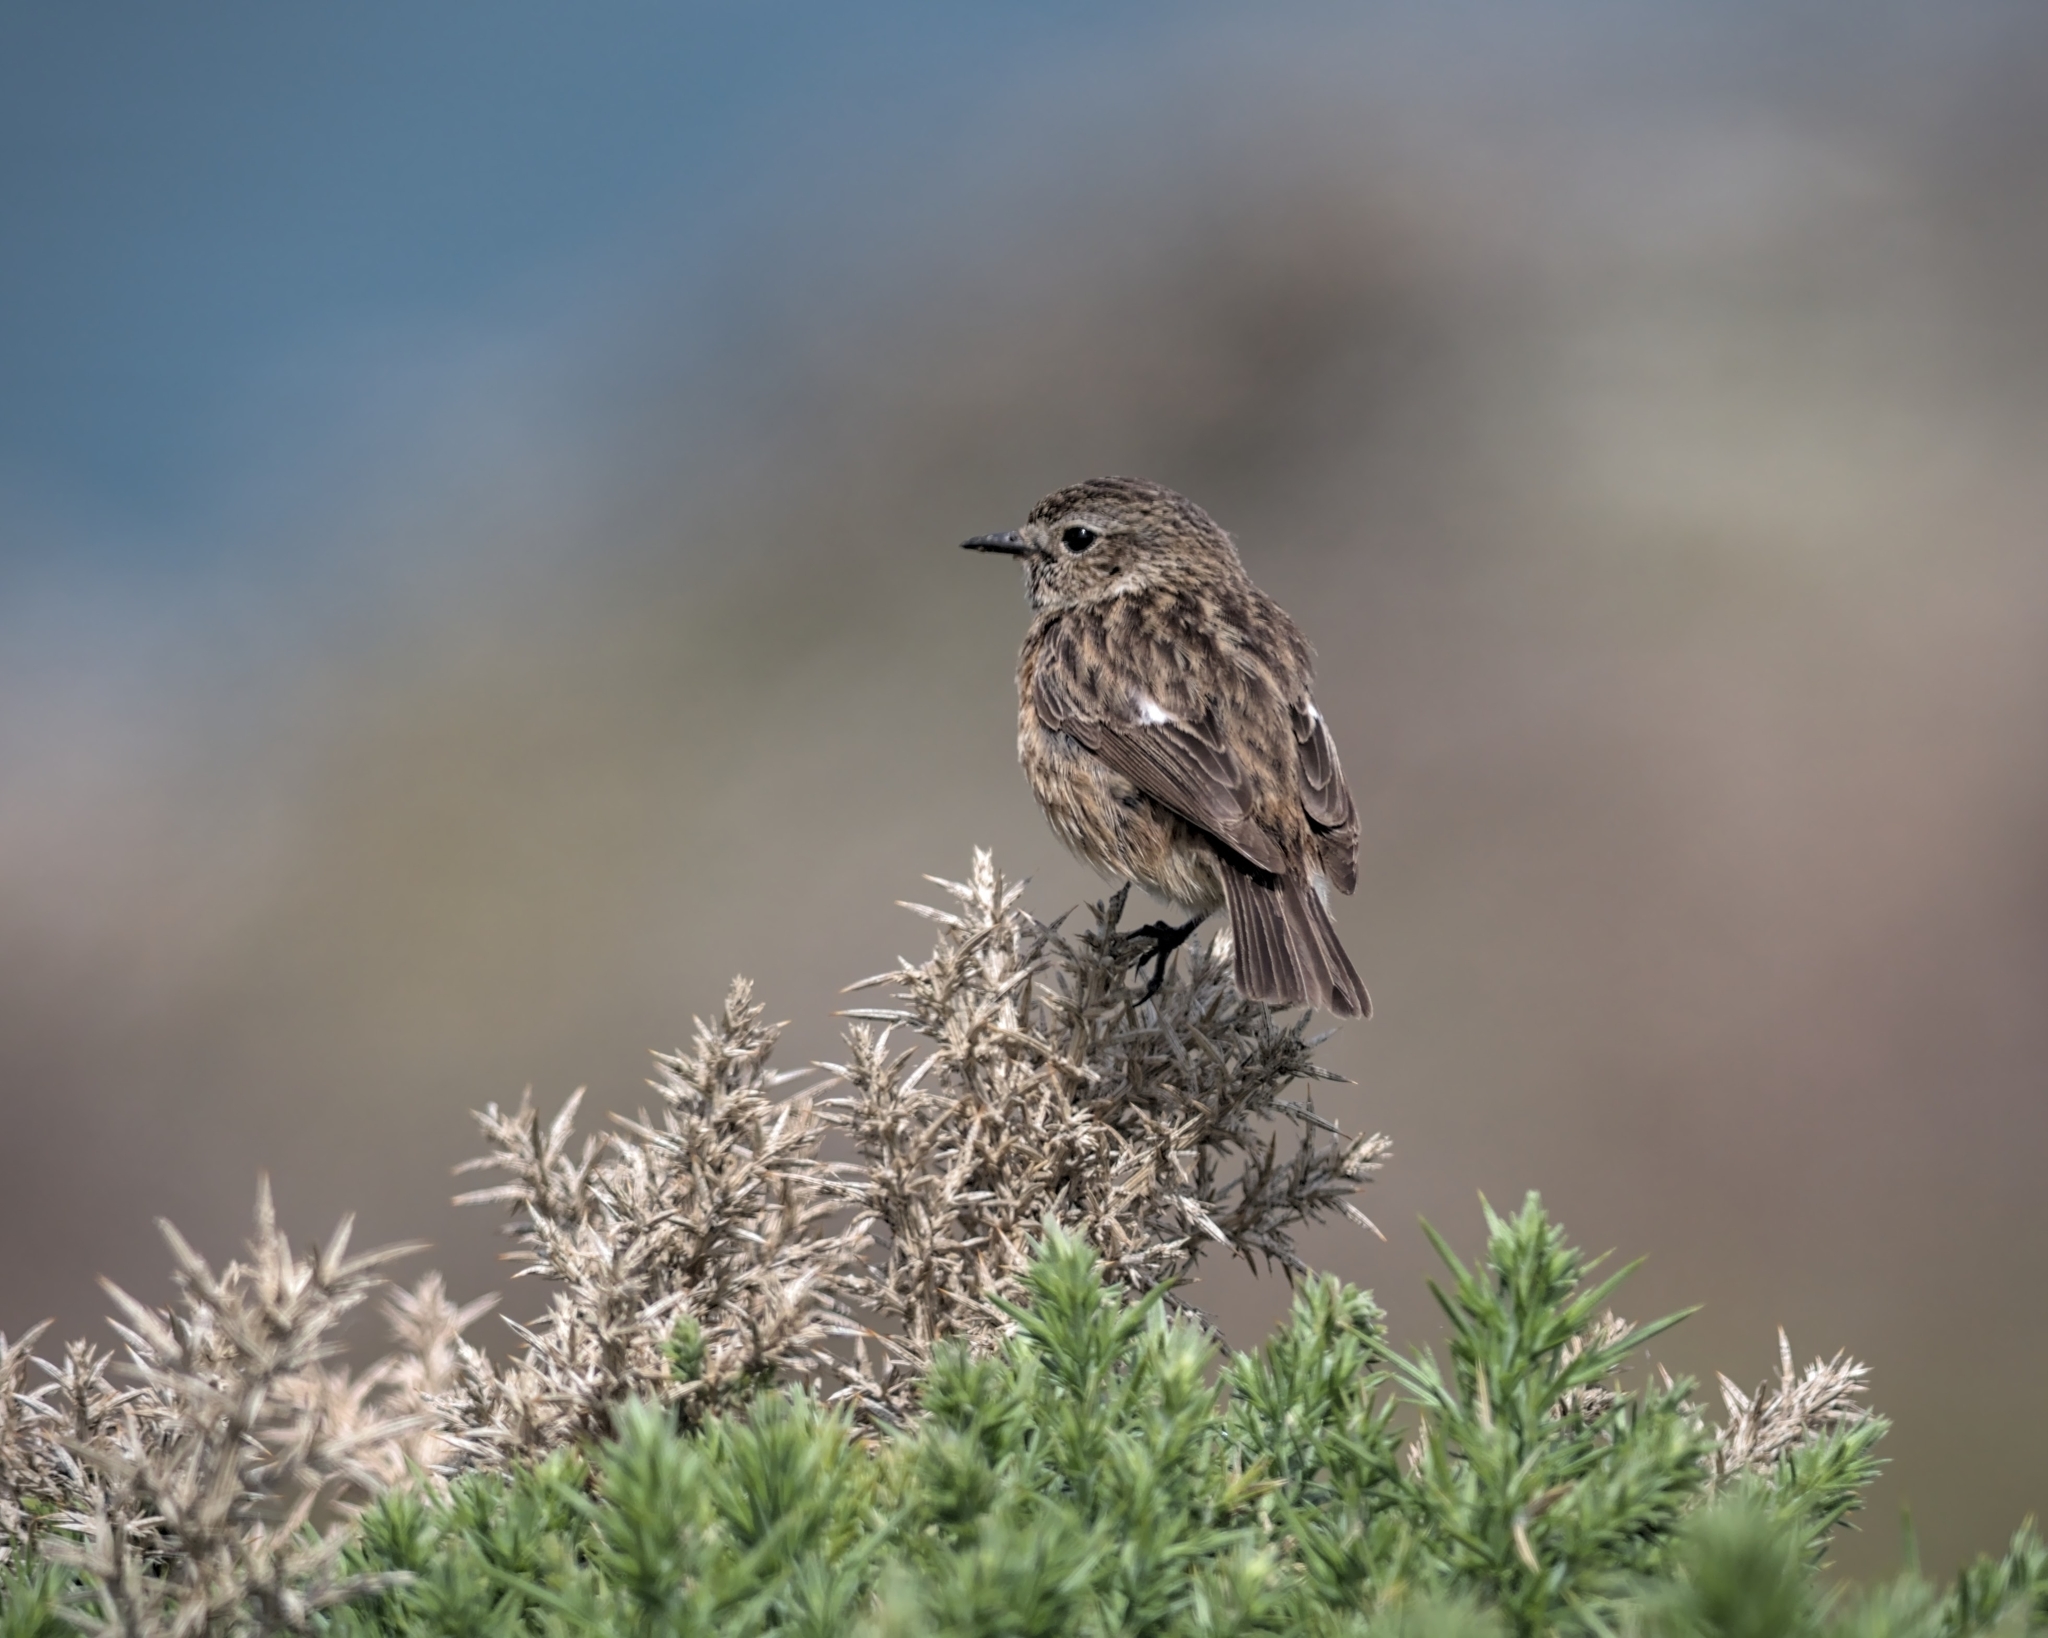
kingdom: Animalia
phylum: Chordata
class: Aves
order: Passeriformes
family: Muscicapidae
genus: Saxicola
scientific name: Saxicola rubicola
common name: European stonechat
